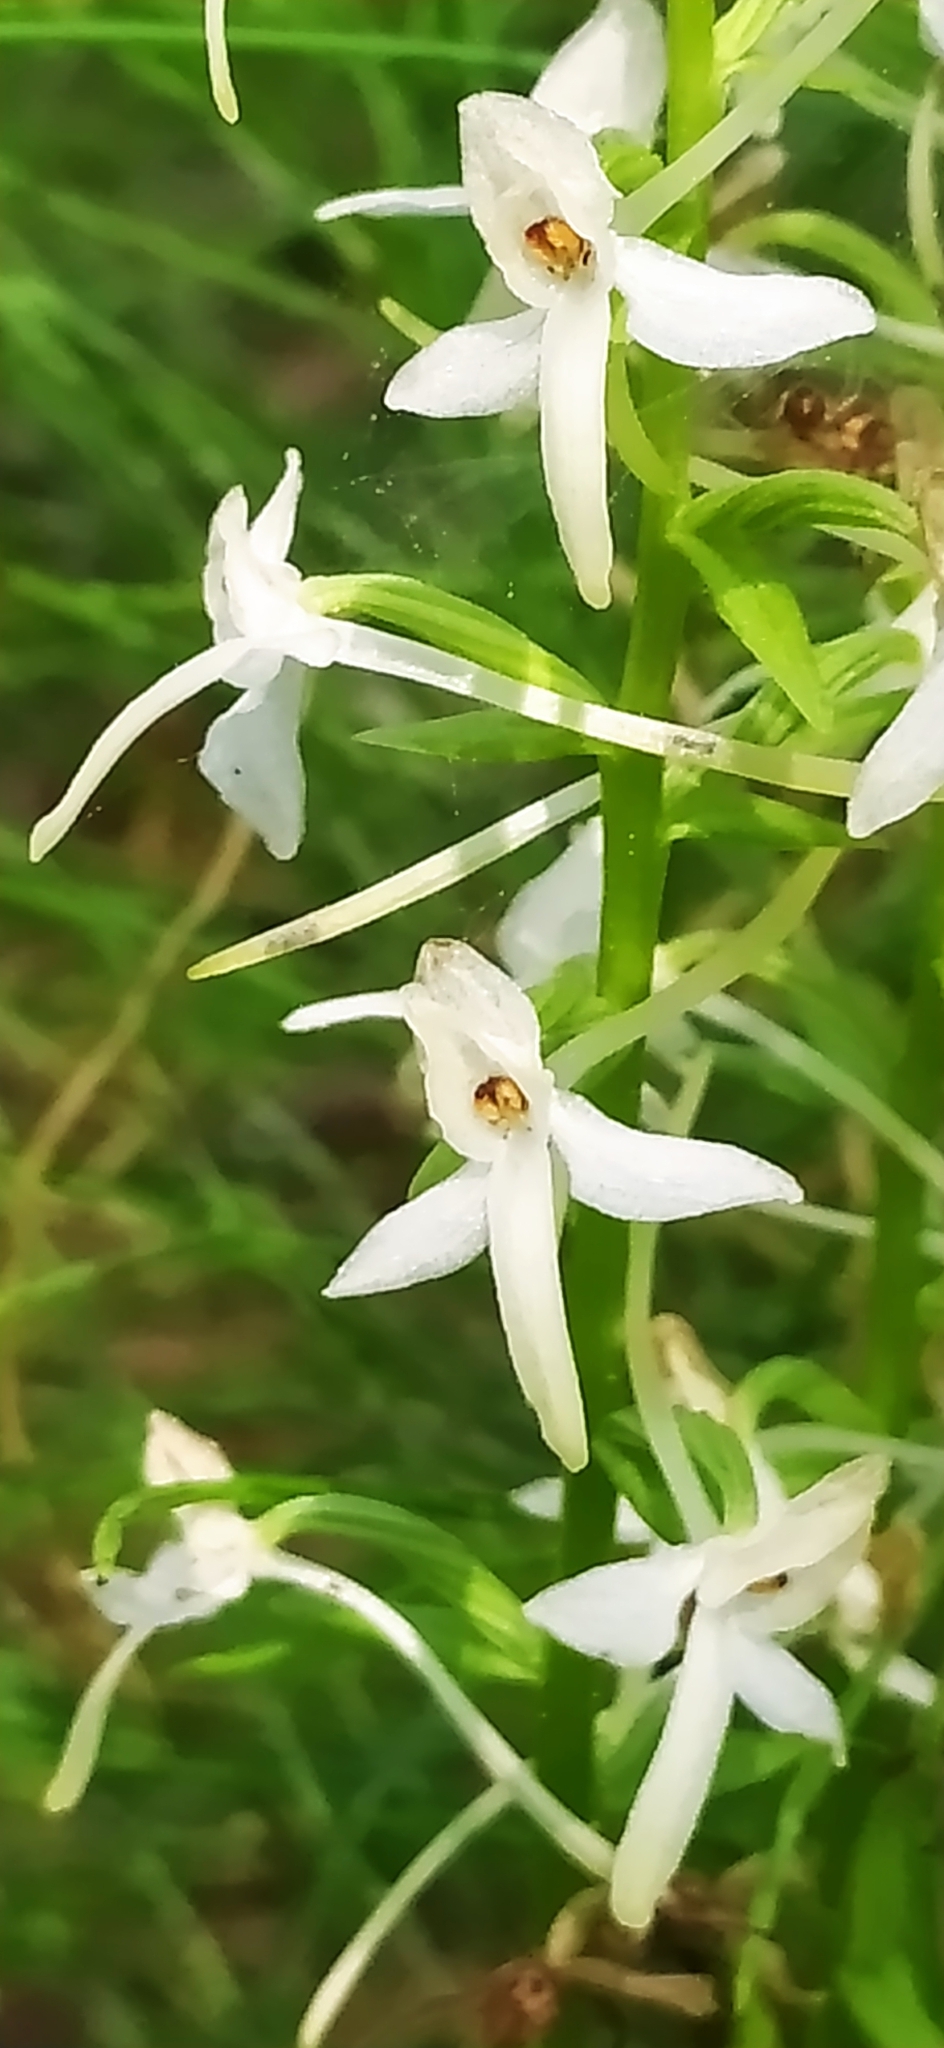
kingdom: Plantae
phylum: Tracheophyta
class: Liliopsida
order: Asparagales
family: Orchidaceae
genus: Platanthera
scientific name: Platanthera bifolia
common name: Lesser butterfly-orchid
